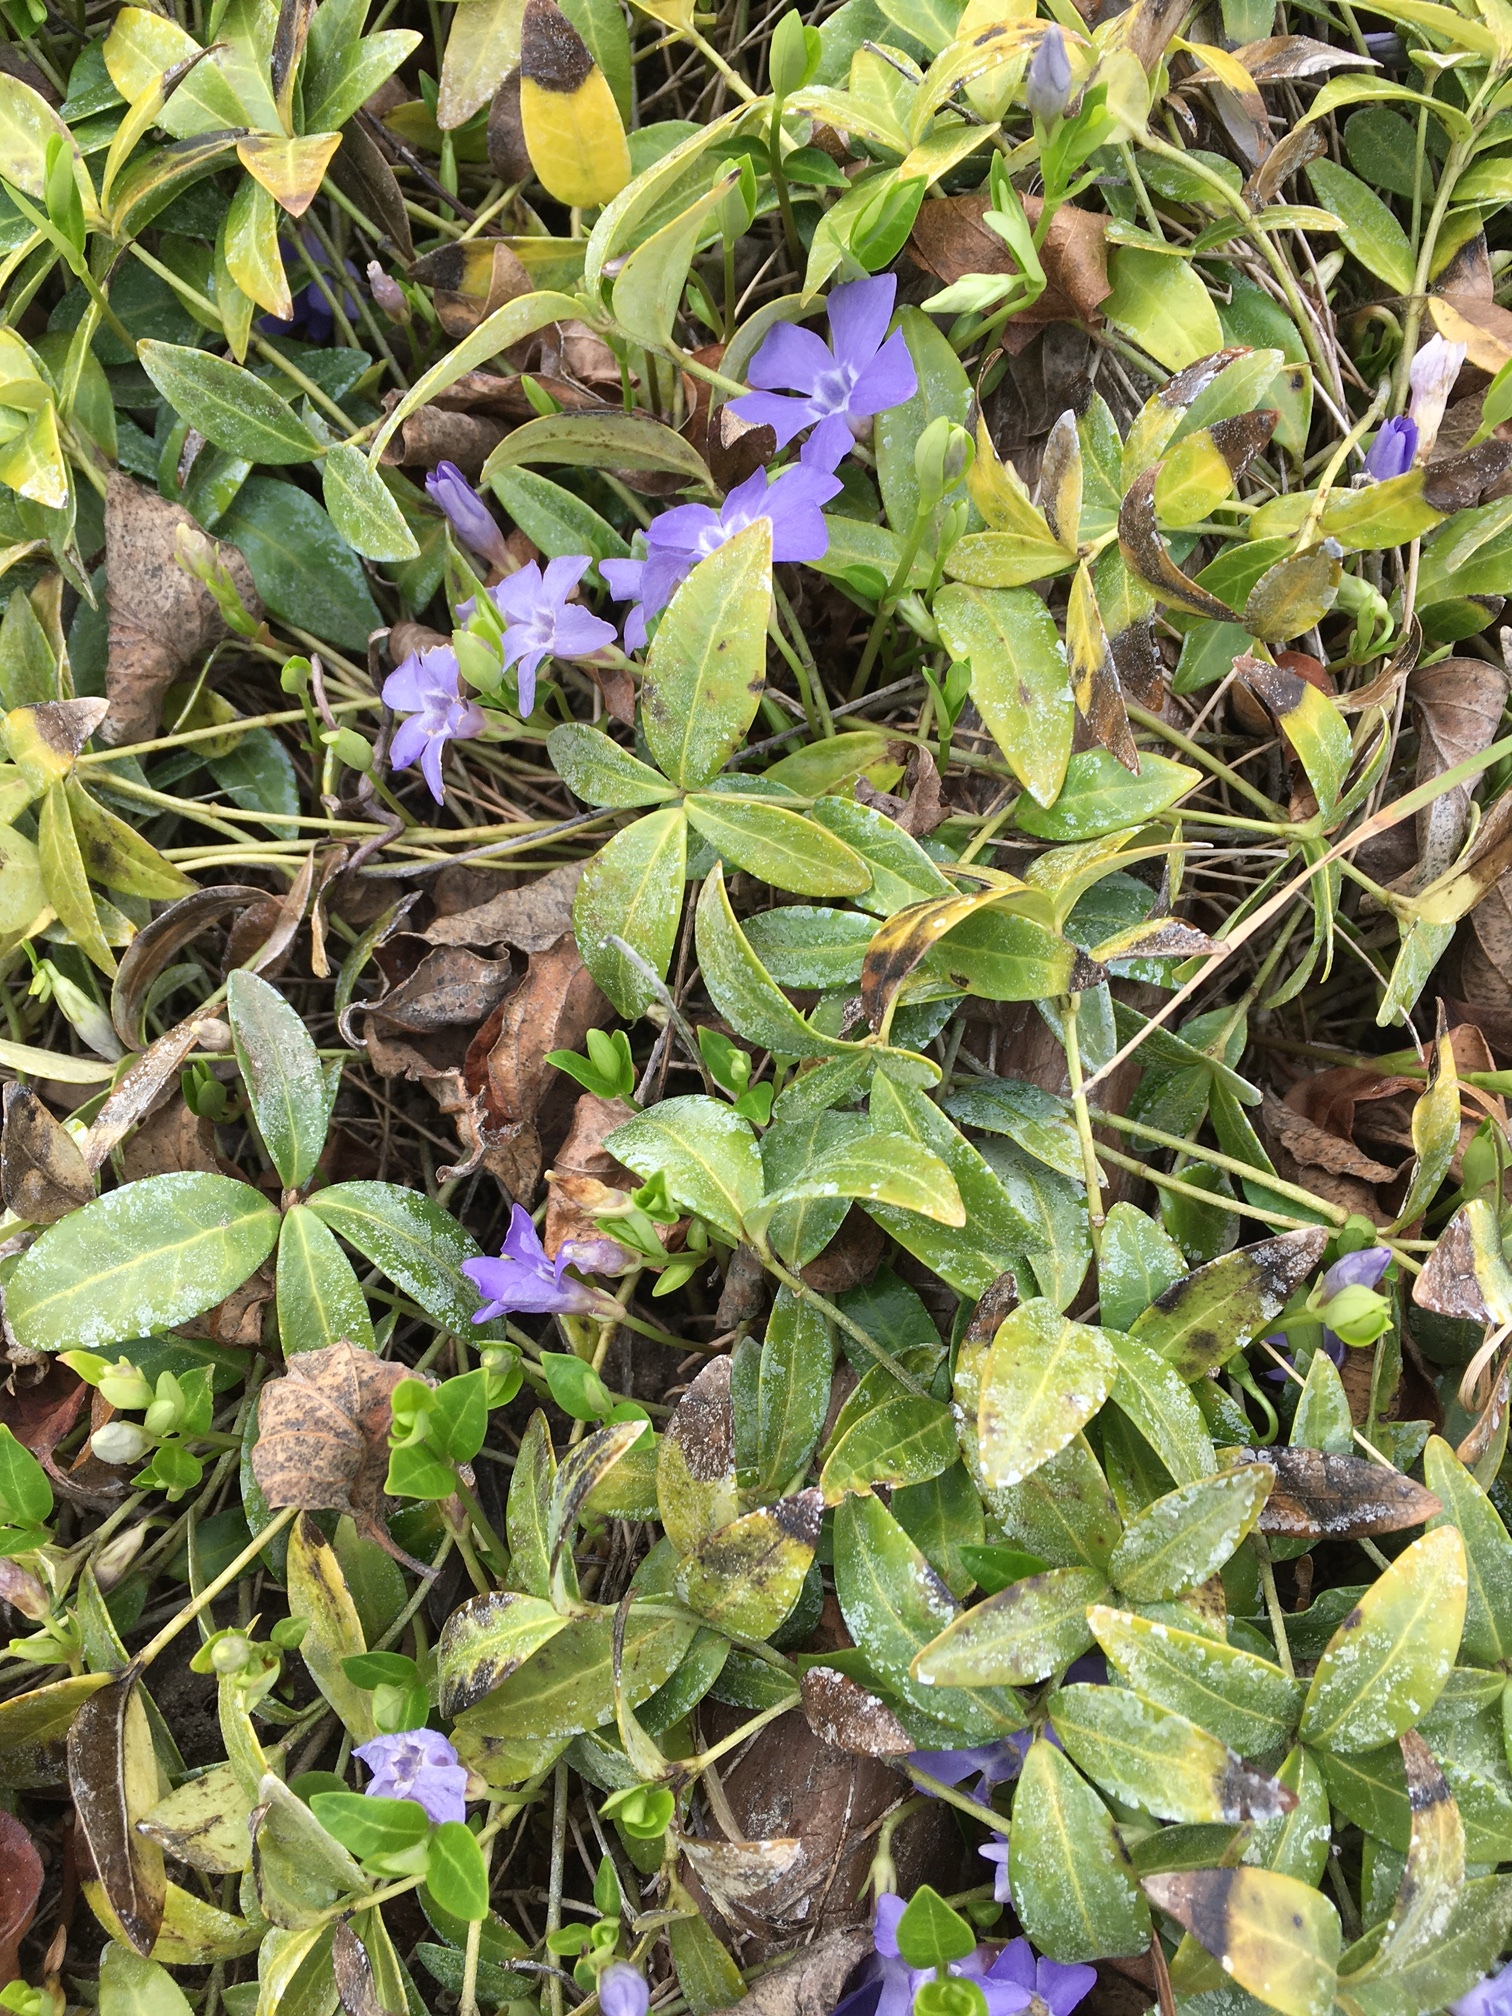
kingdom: Plantae
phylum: Tracheophyta
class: Magnoliopsida
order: Gentianales
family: Apocynaceae
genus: Vinca
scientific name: Vinca minor
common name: Lesser periwinkle
